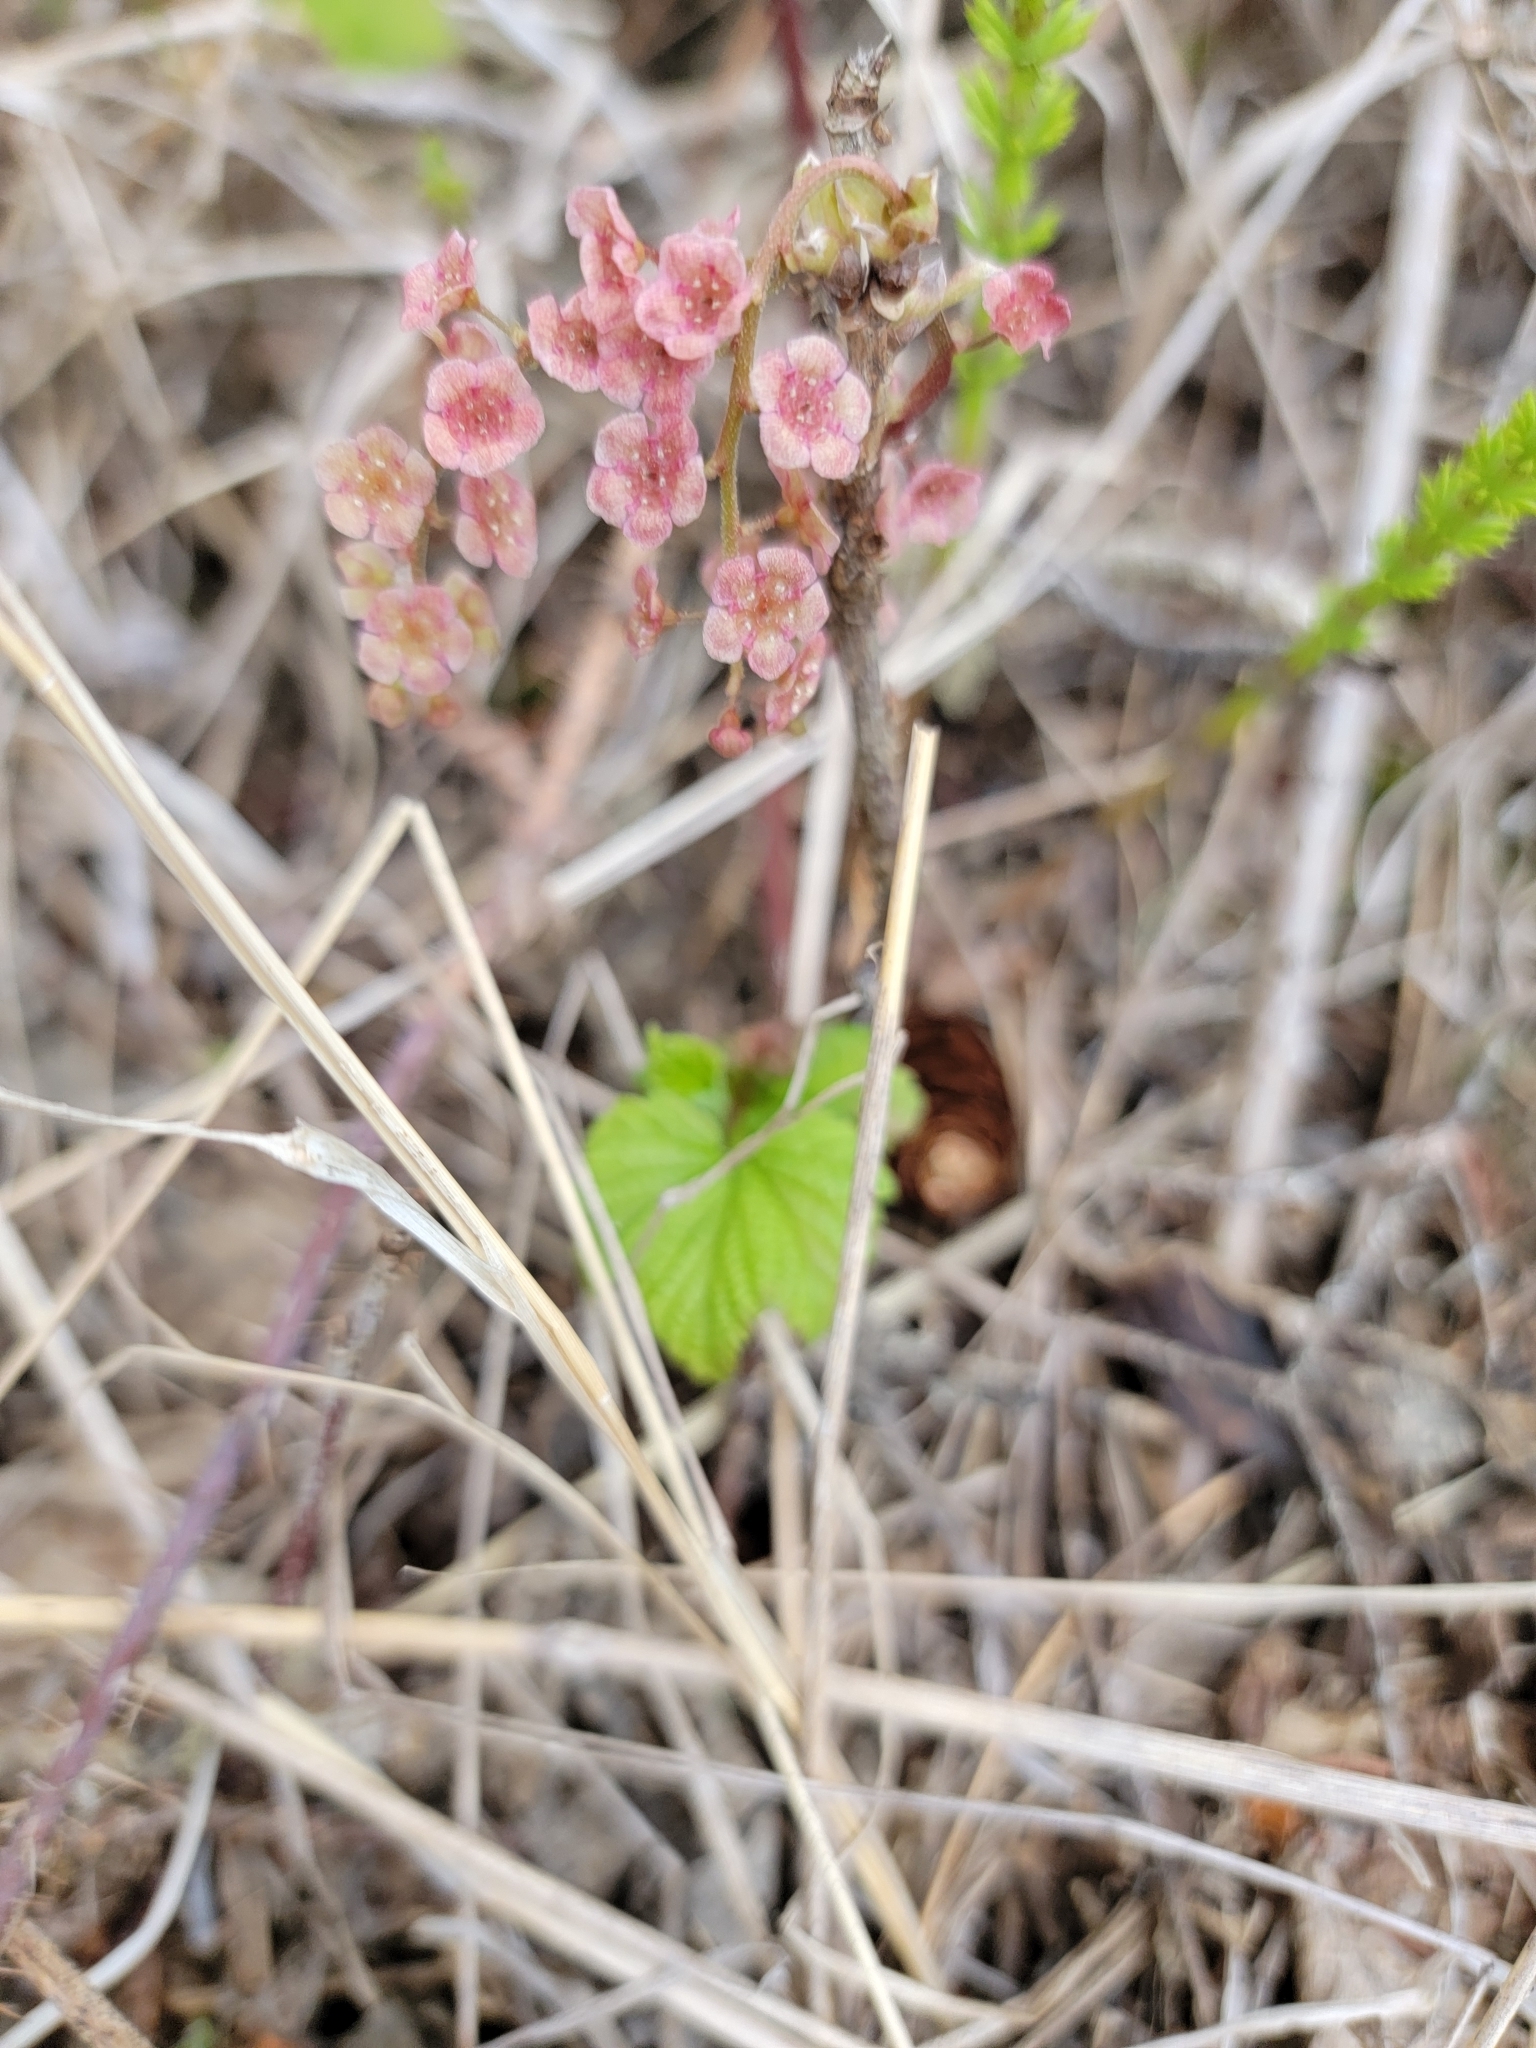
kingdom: Plantae
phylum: Tracheophyta
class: Magnoliopsida
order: Saxifragales
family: Grossulariaceae
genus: Ribes
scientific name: Ribes triste
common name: Swamp red currant
